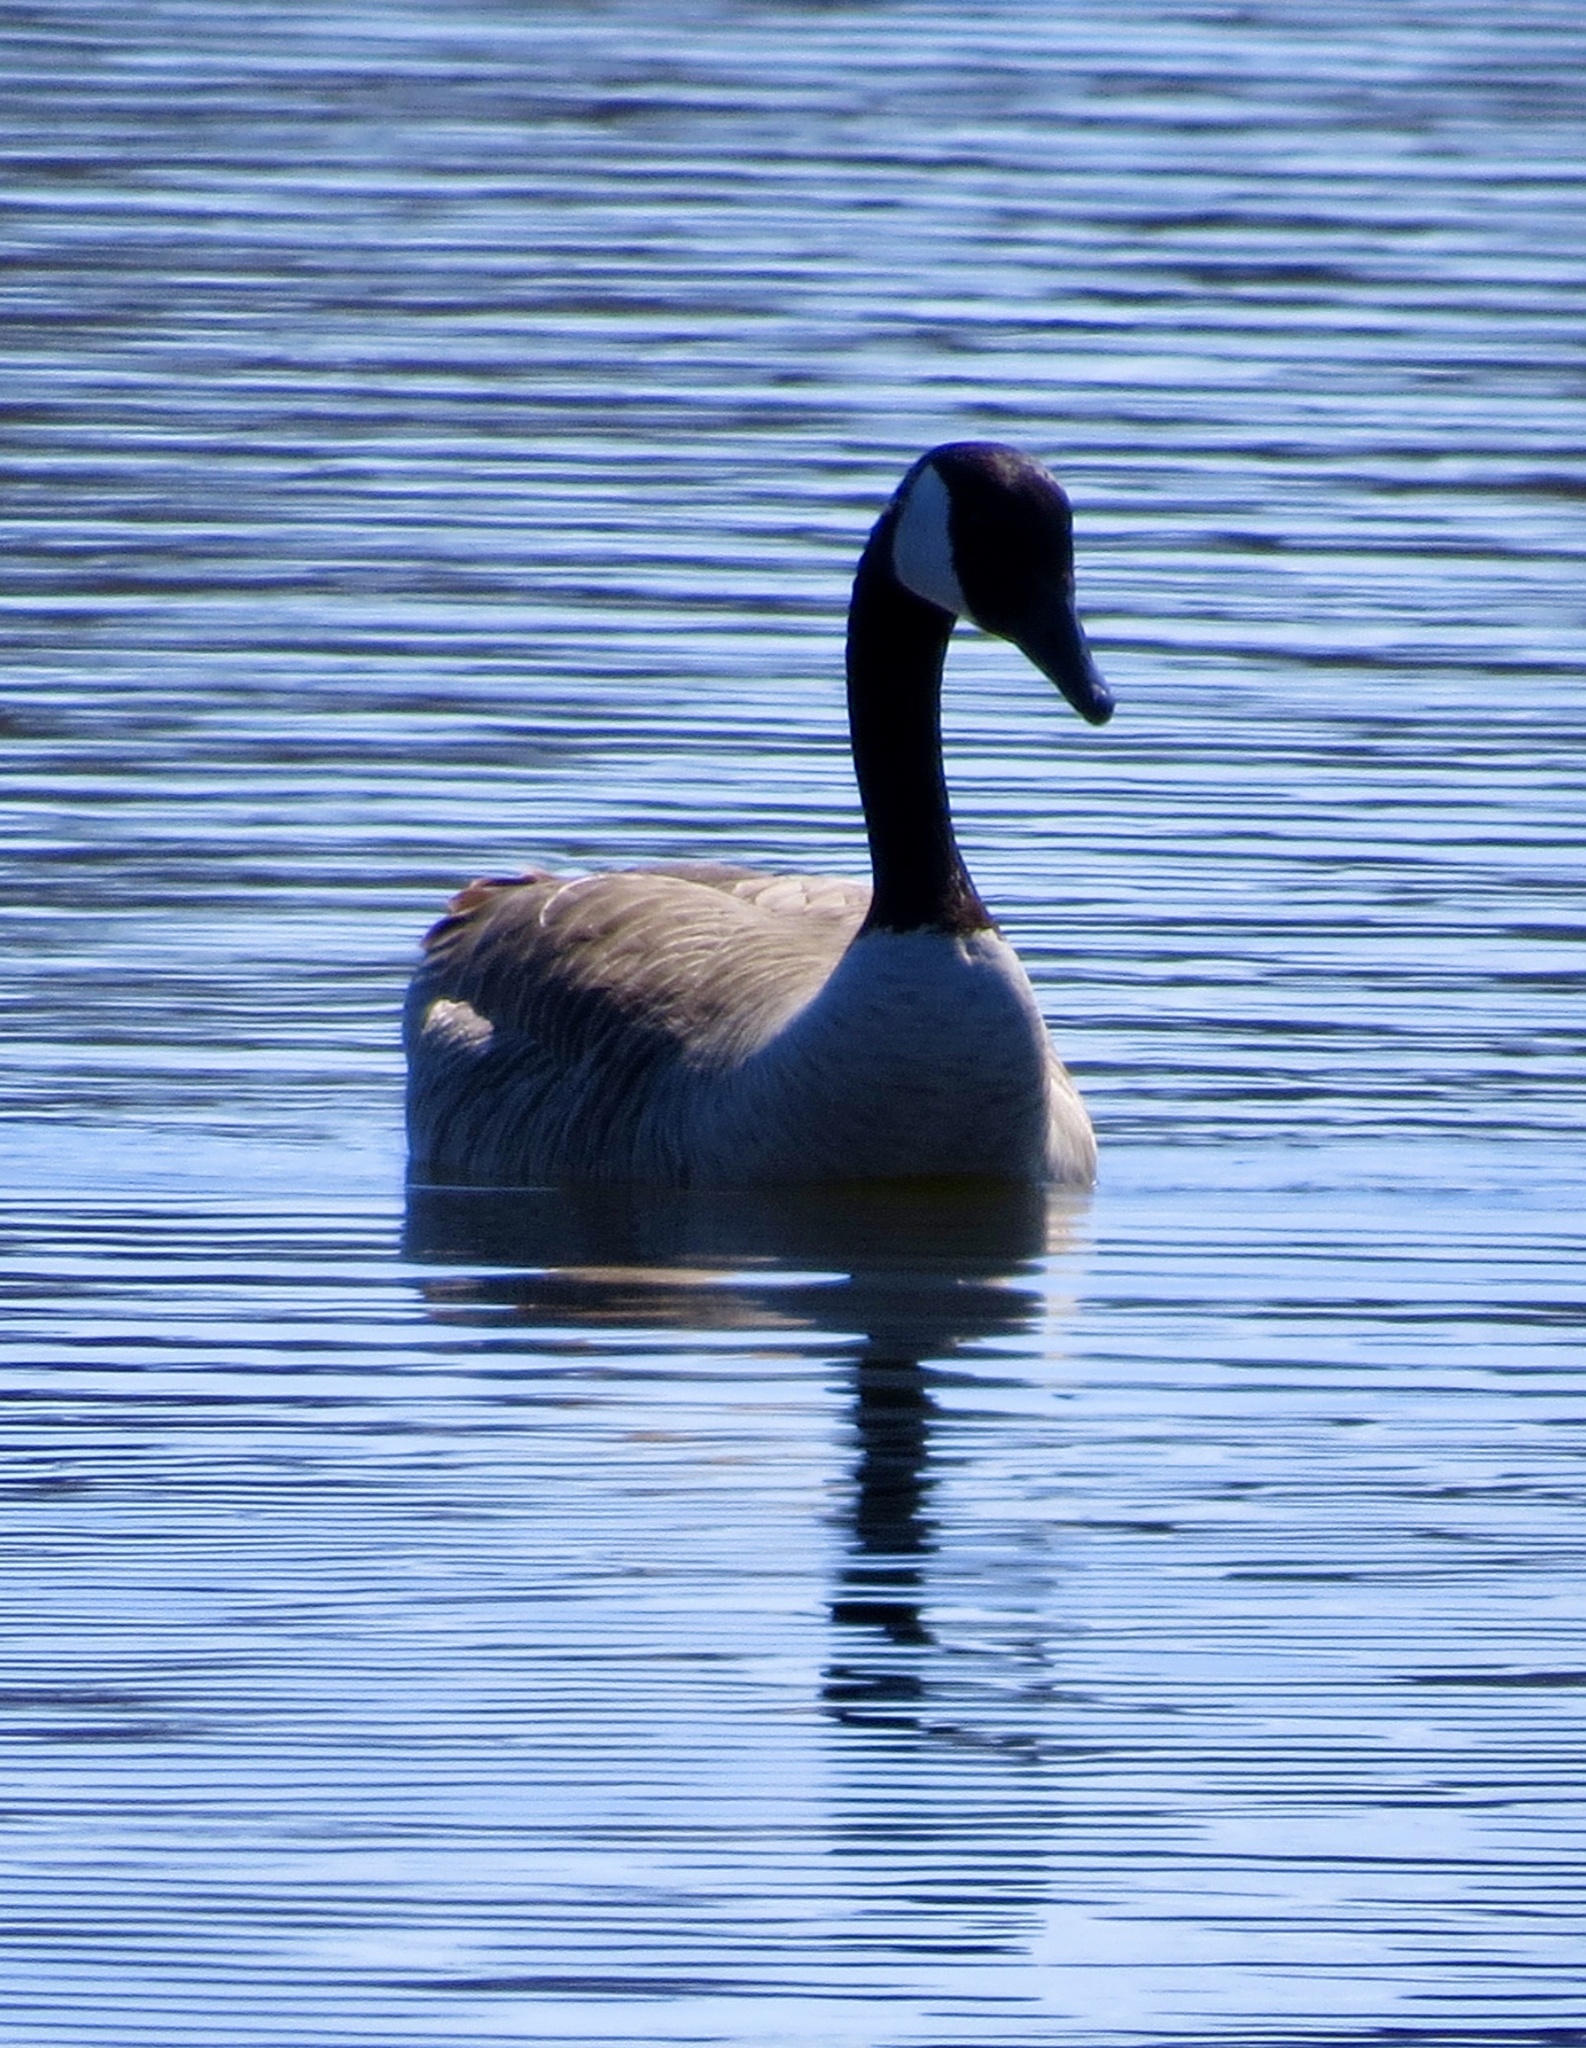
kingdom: Animalia
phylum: Chordata
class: Aves
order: Anseriformes
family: Anatidae
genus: Branta
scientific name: Branta canadensis
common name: Canada goose
